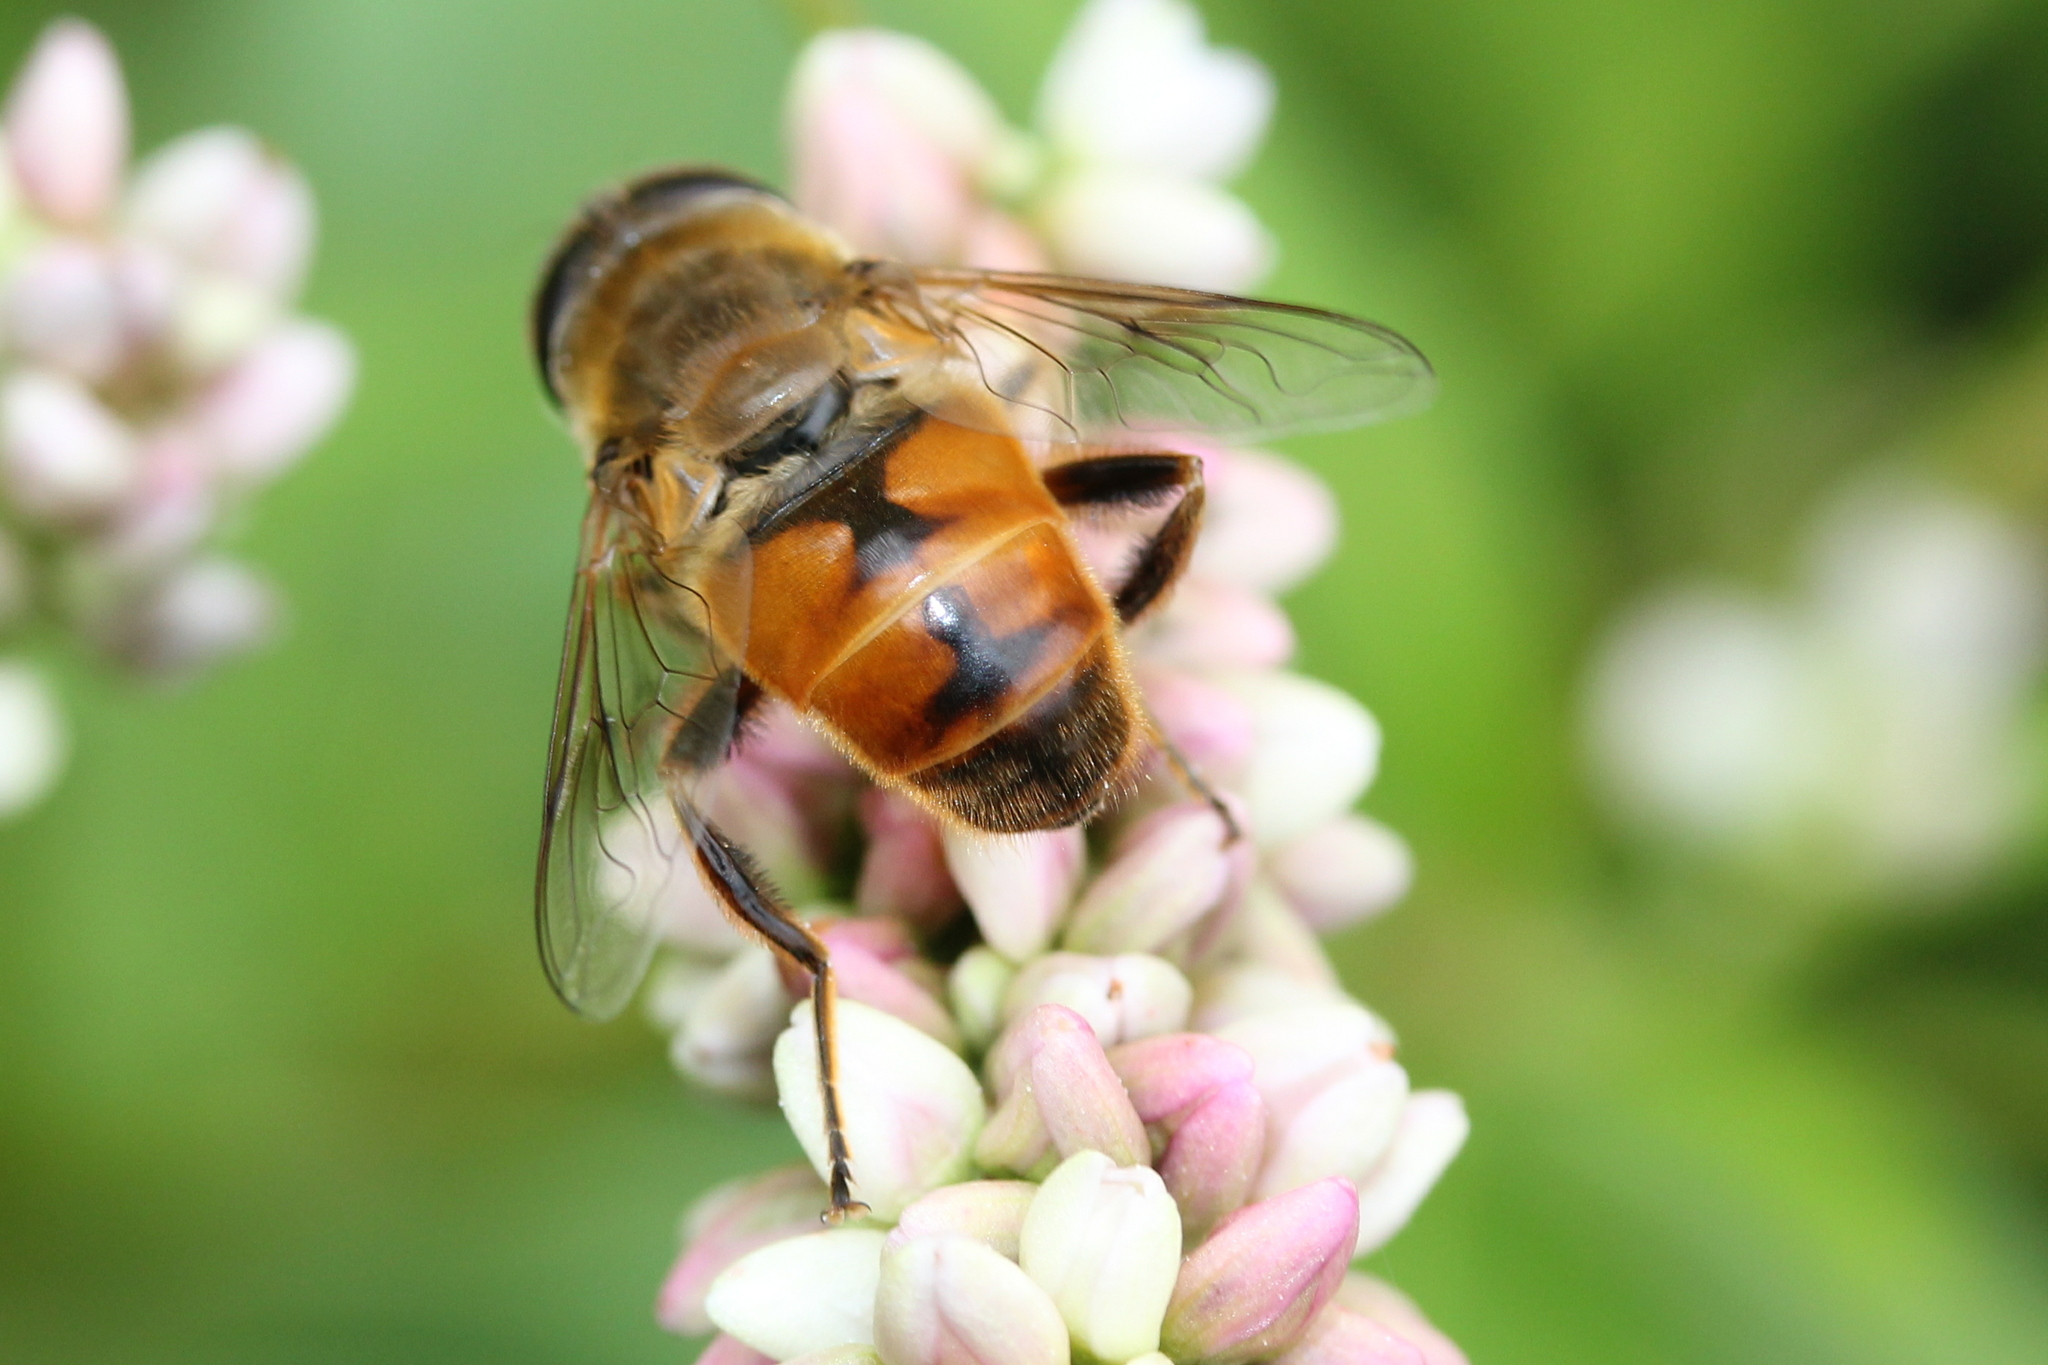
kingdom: Animalia
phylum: Arthropoda
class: Insecta
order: Diptera
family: Syrphidae
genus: Eristalis
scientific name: Eristalis tenax
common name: Drone fly
